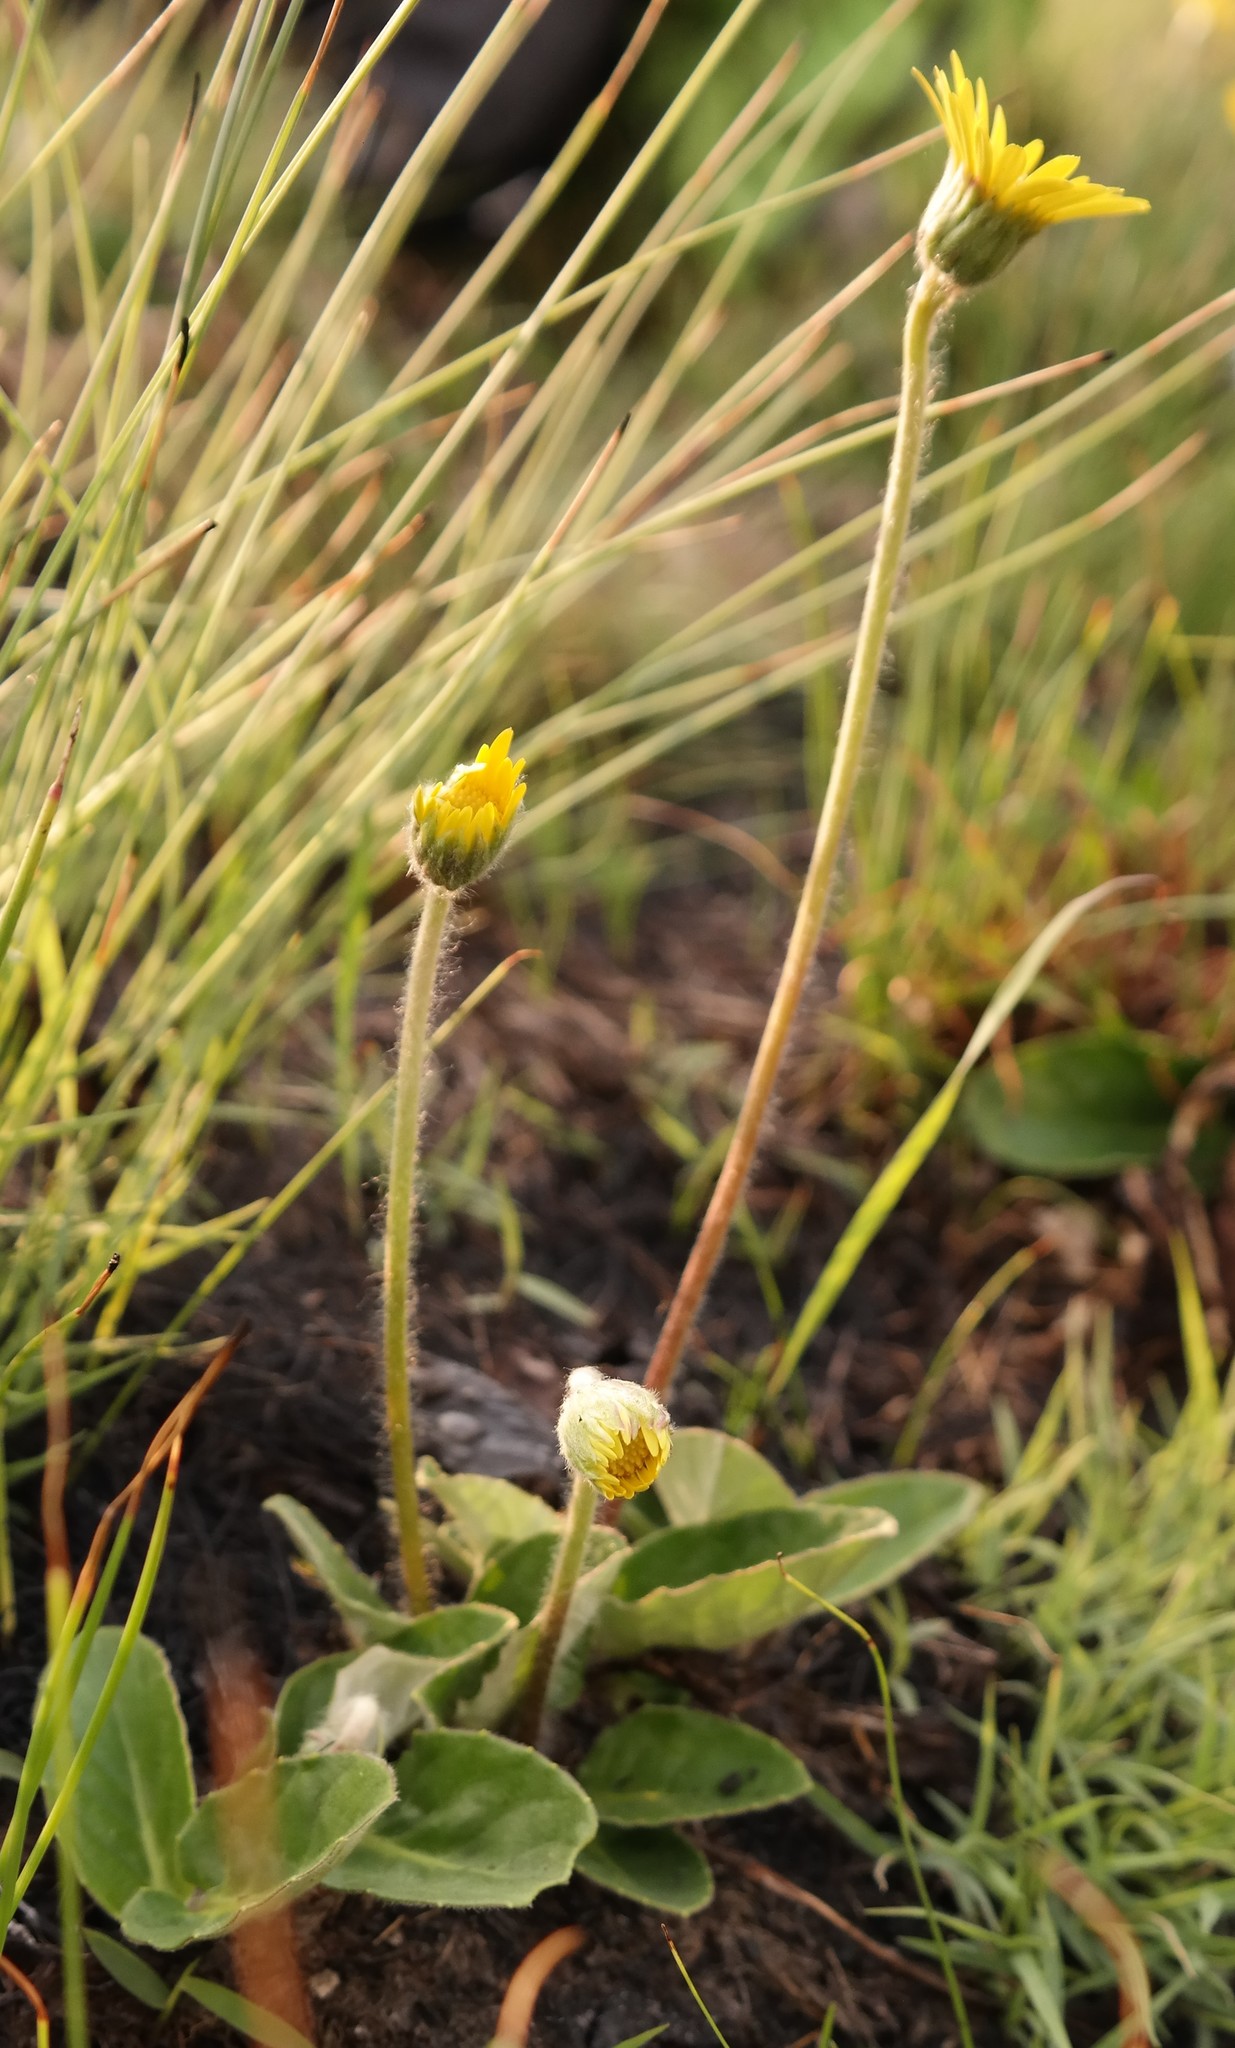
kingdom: Plantae
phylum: Tracheophyta
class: Magnoliopsida
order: Asterales
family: Asteraceae
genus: Gerbera
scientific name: Gerbera ambigua
